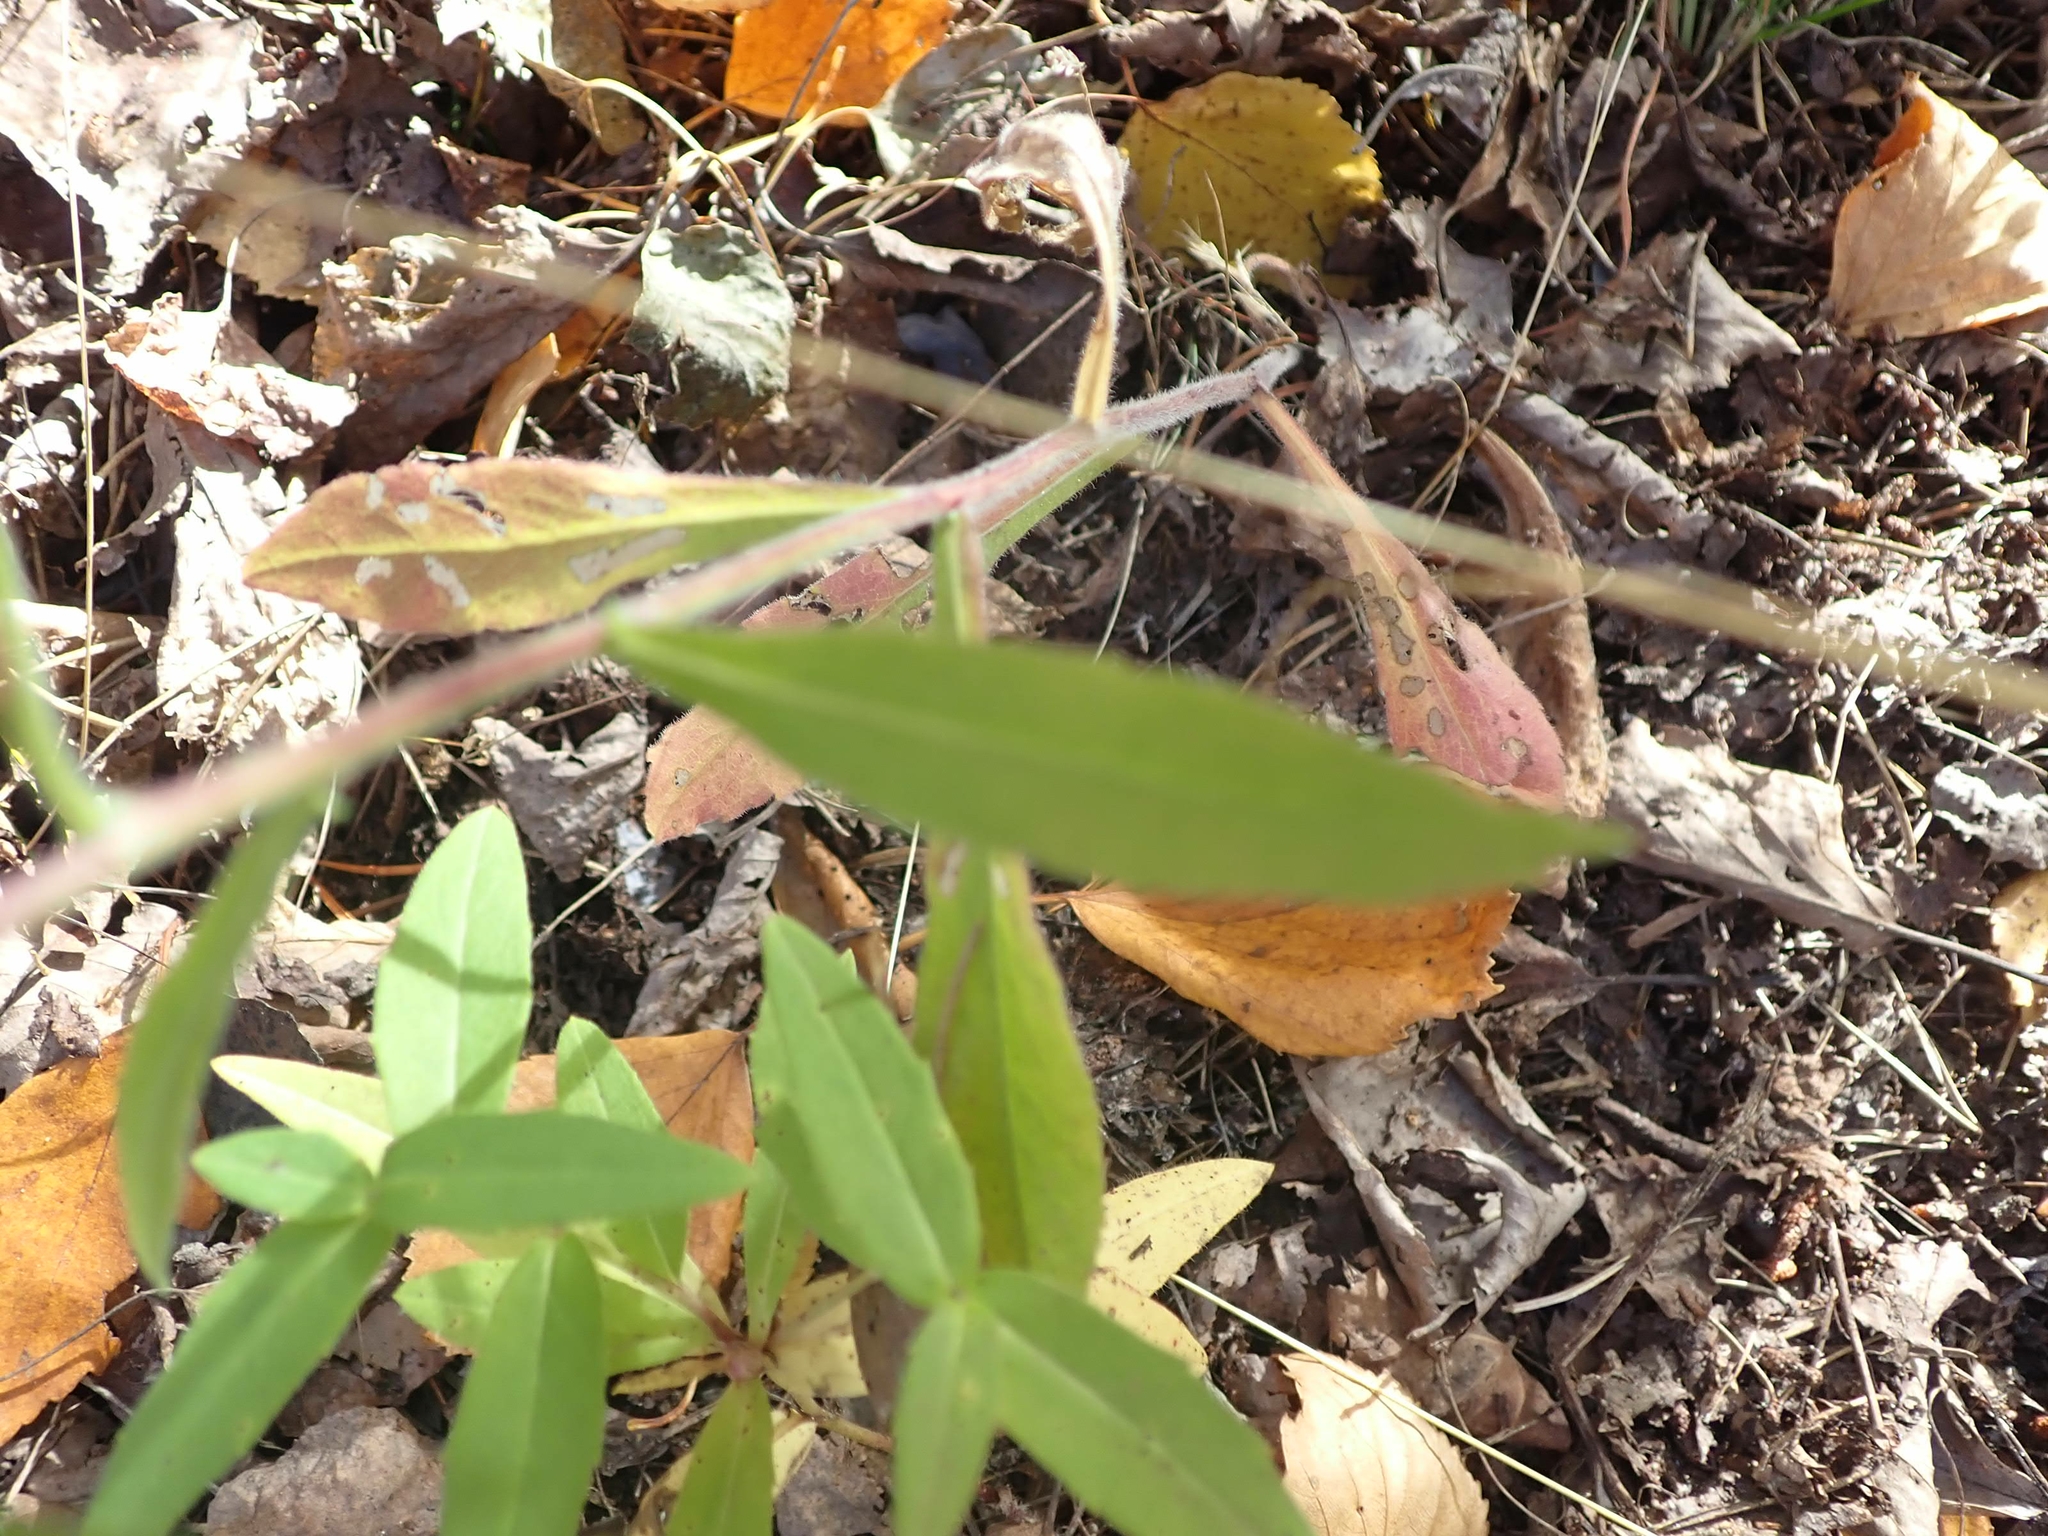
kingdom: Plantae
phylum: Tracheophyta
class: Magnoliopsida
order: Asterales
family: Asteraceae
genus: Solidago
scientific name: Solidago hispida
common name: Hairy goldenrod
